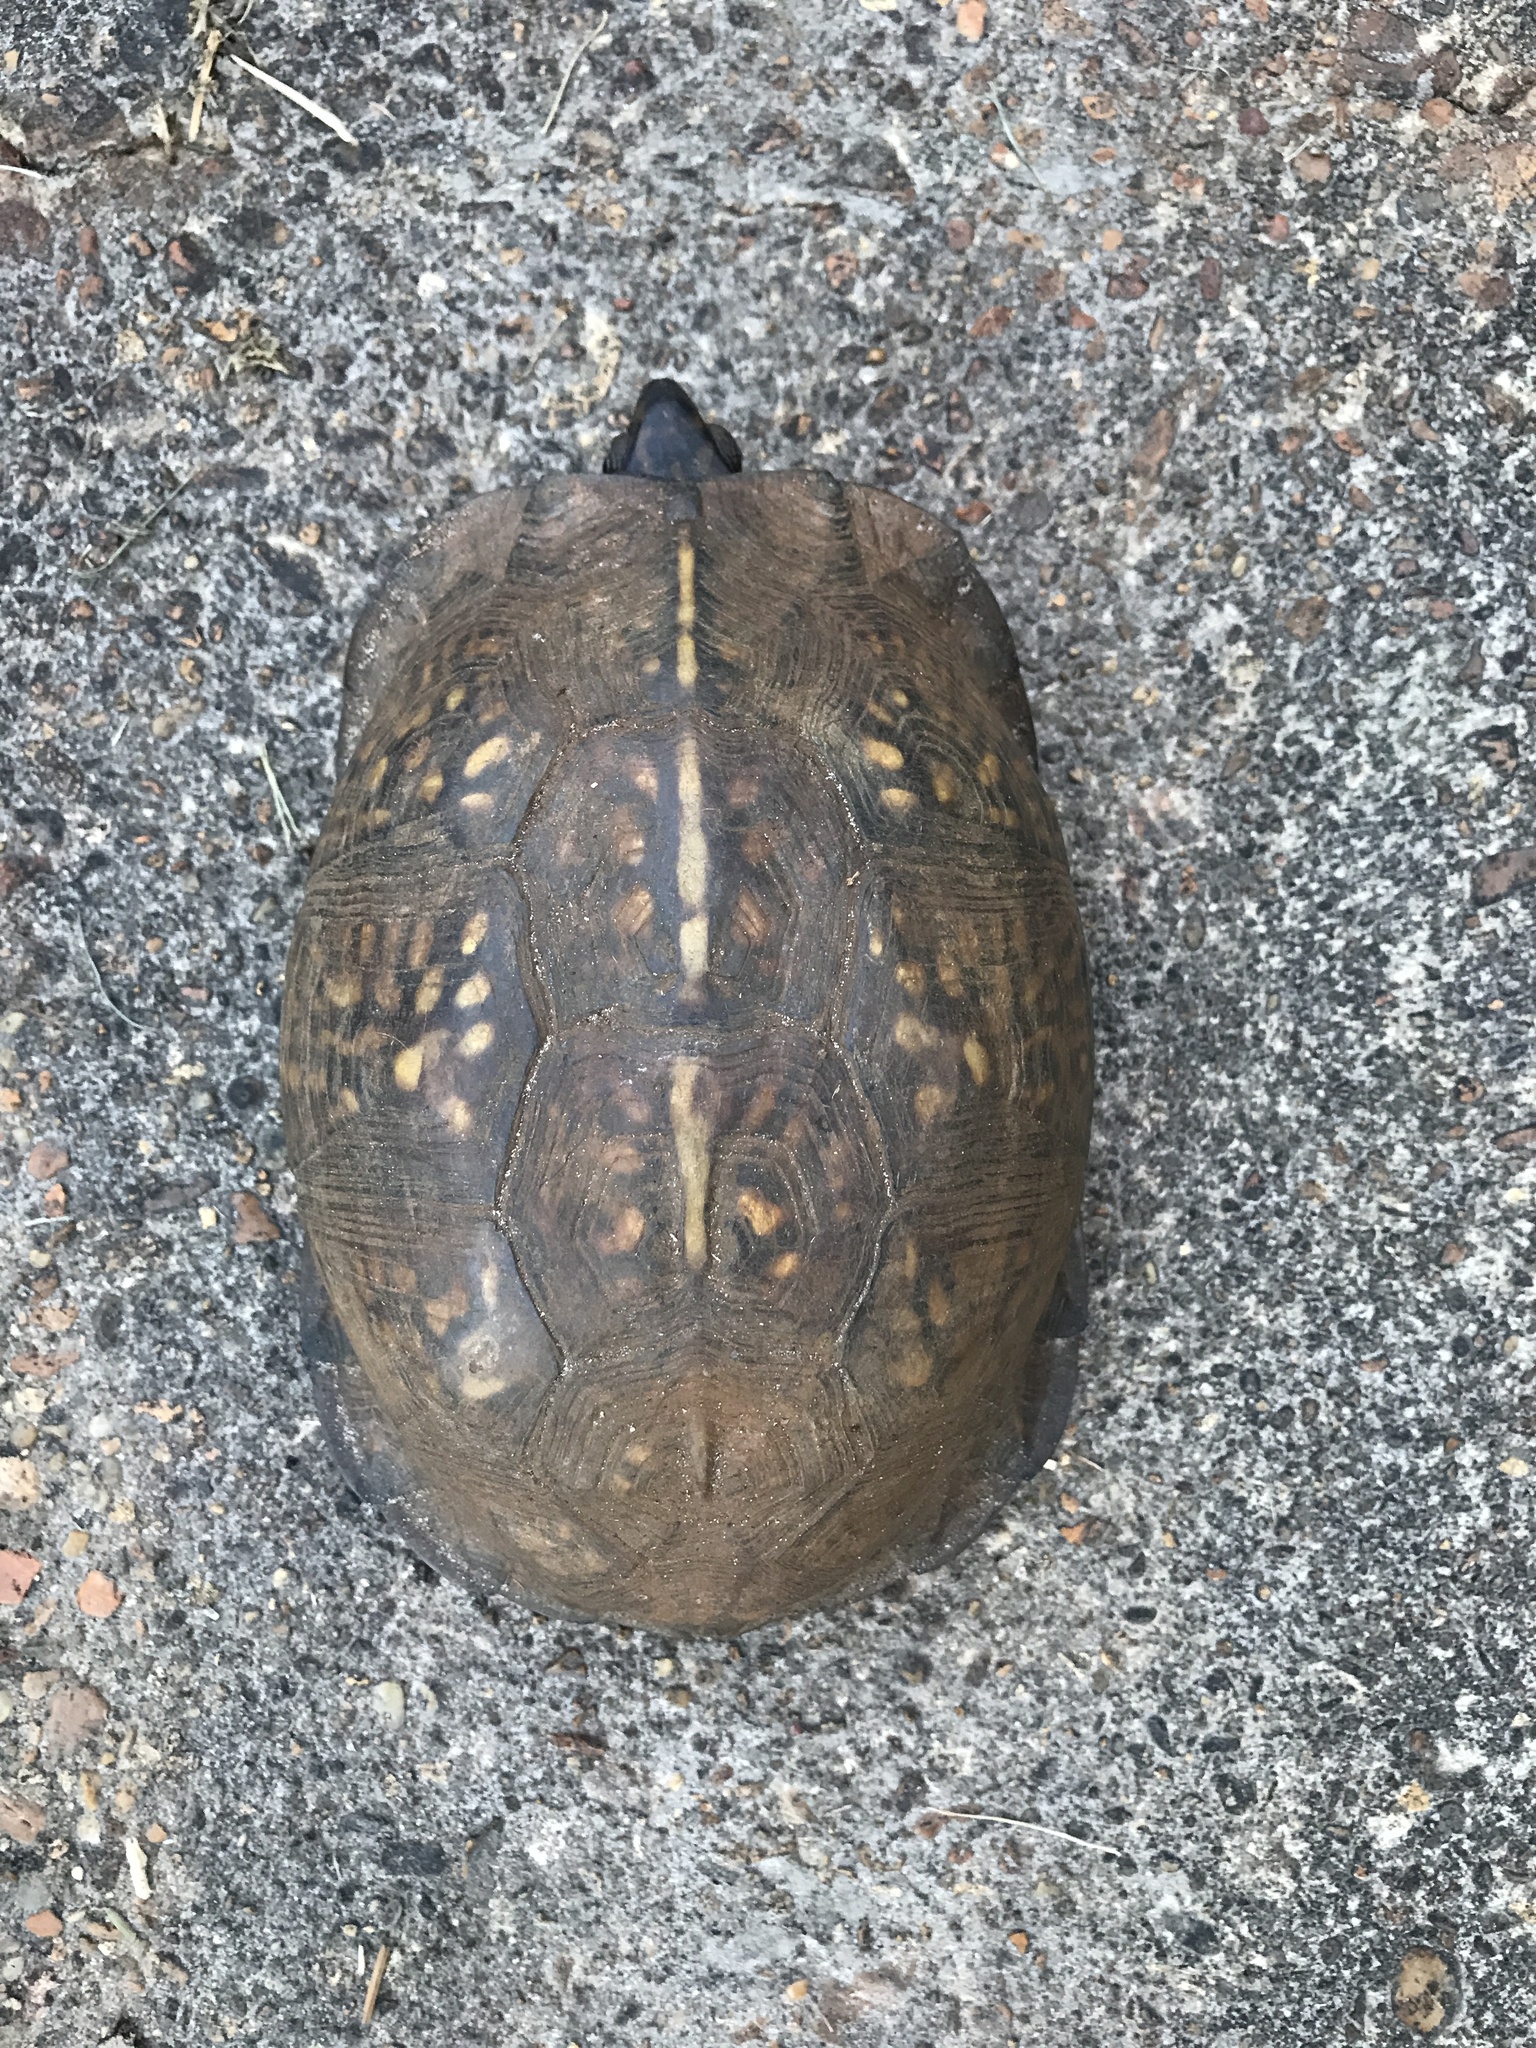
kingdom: Animalia
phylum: Chordata
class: Testudines
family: Emydidae
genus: Terrapene
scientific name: Terrapene carolina
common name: Common box turtle
